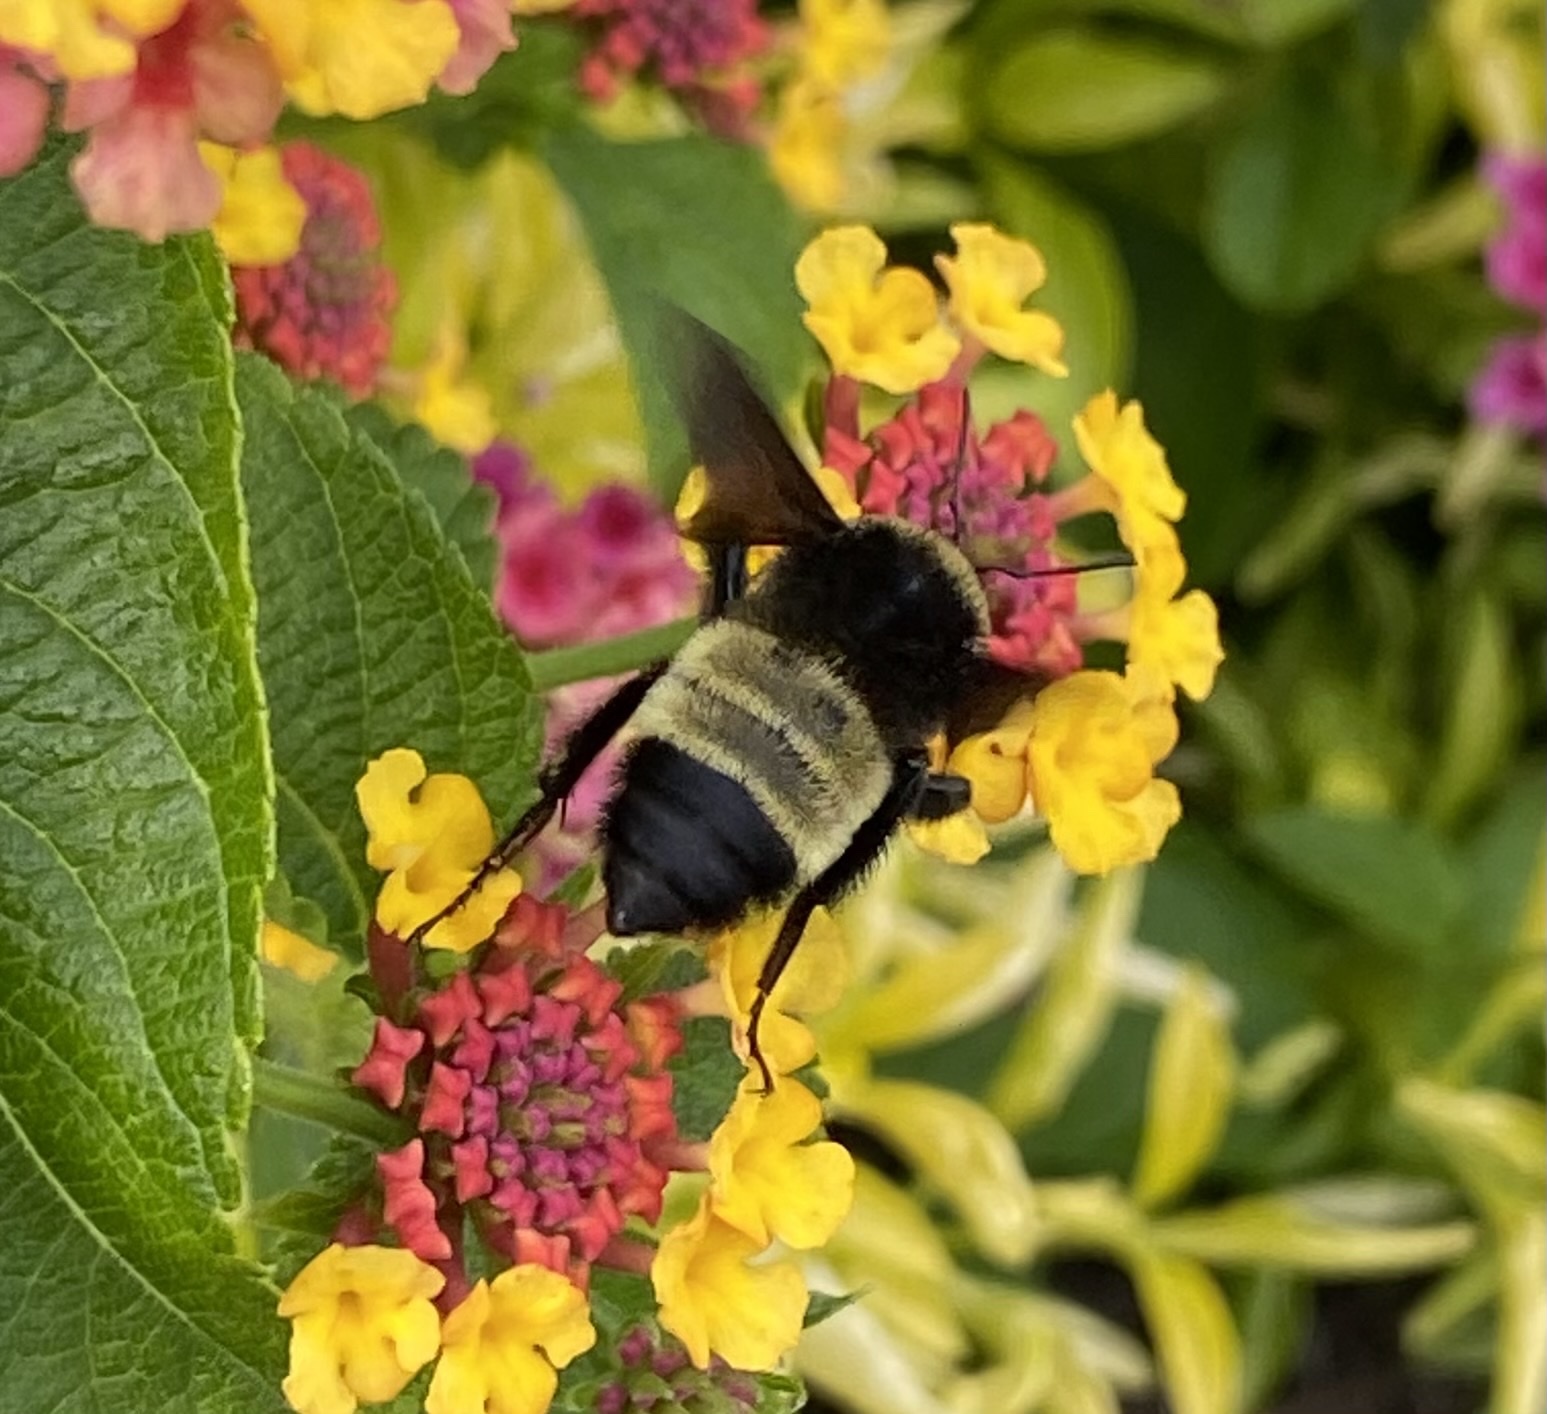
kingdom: Animalia
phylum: Arthropoda
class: Insecta
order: Hymenoptera
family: Apidae
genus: Bombus
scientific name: Bombus pensylvanicus
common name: Bumble bee
